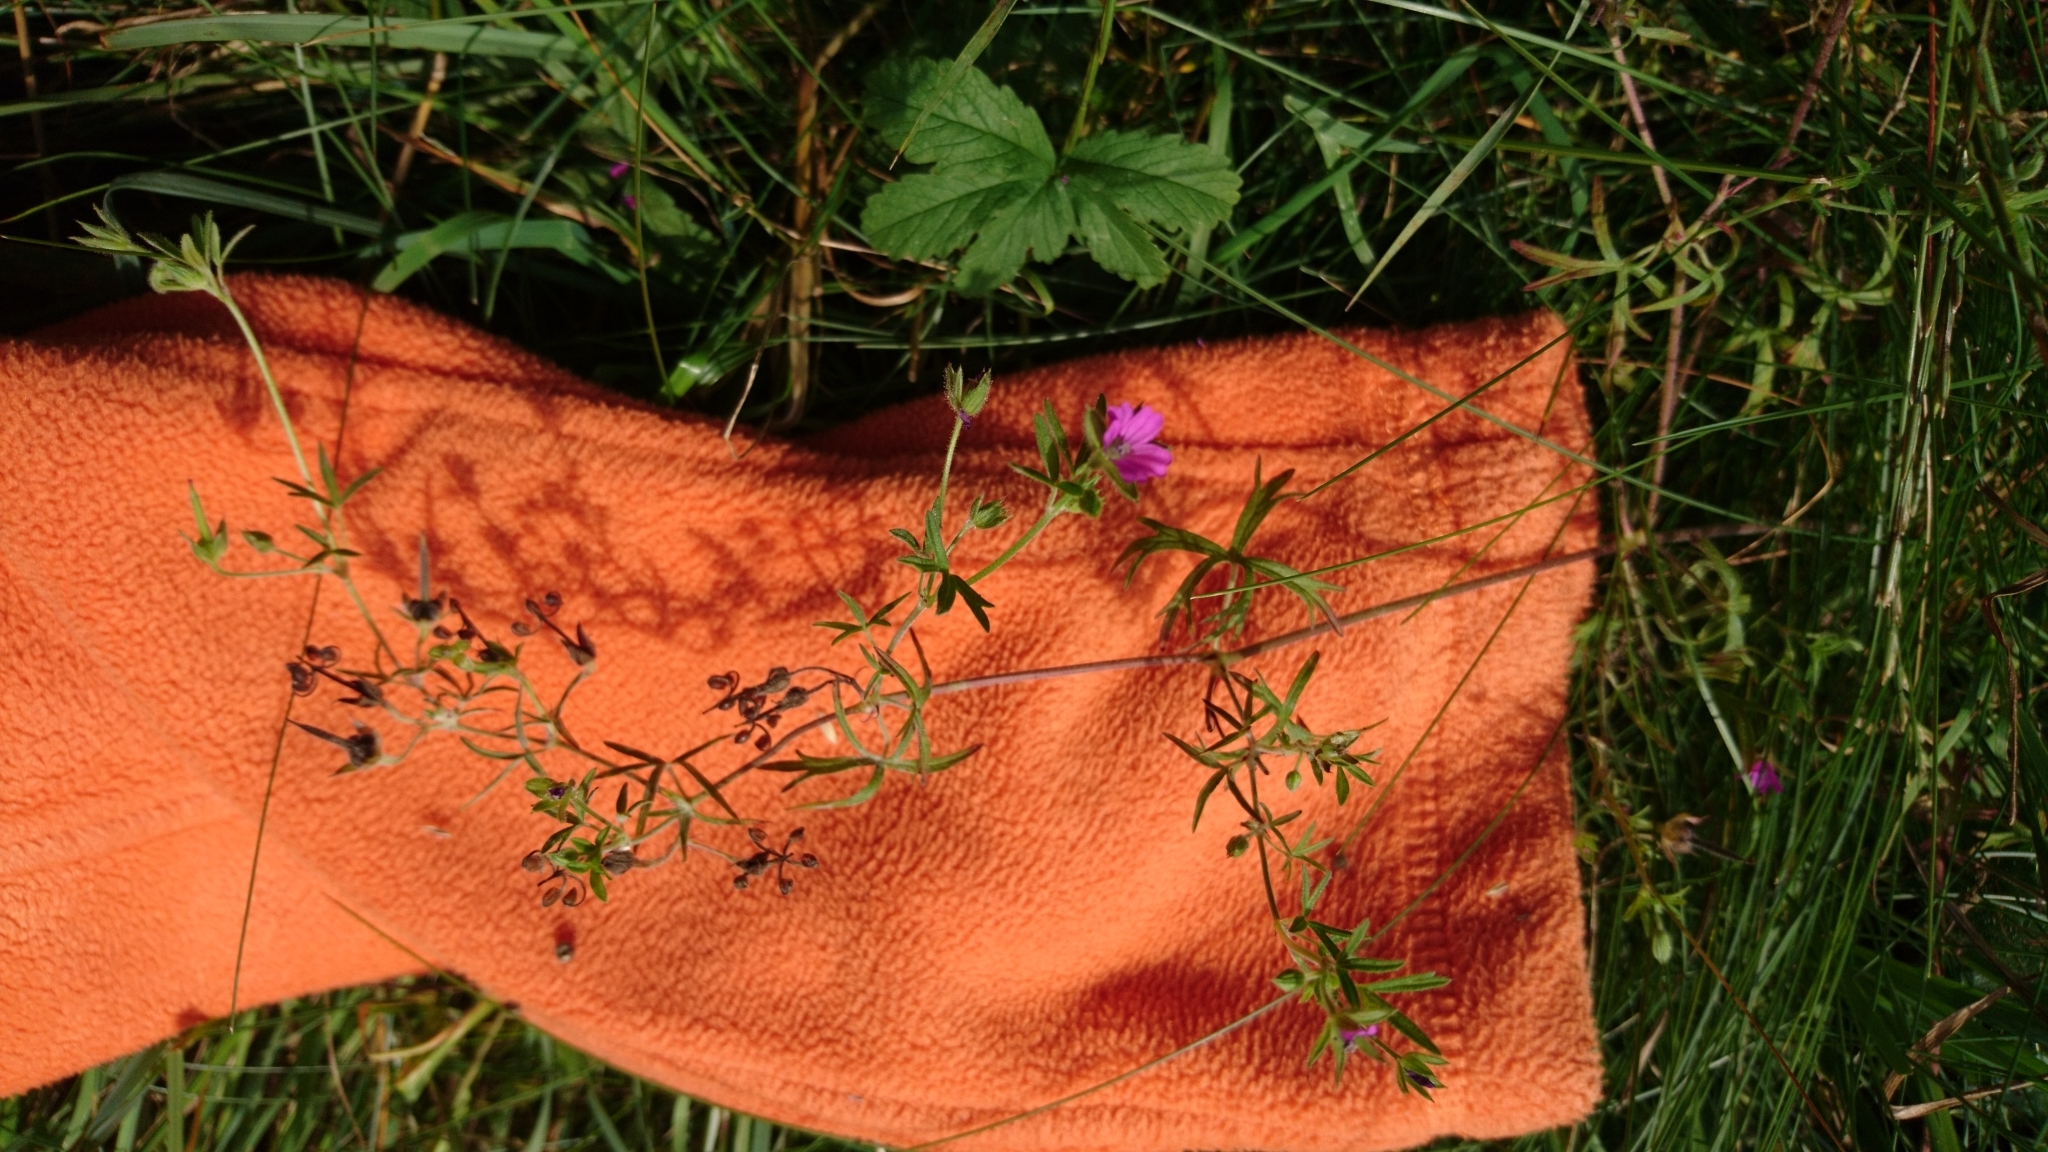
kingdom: Plantae
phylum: Tracheophyta
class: Magnoliopsida
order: Geraniales
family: Geraniaceae
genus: Geranium
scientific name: Geranium dissectum
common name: Cut-leaved crane's-bill
